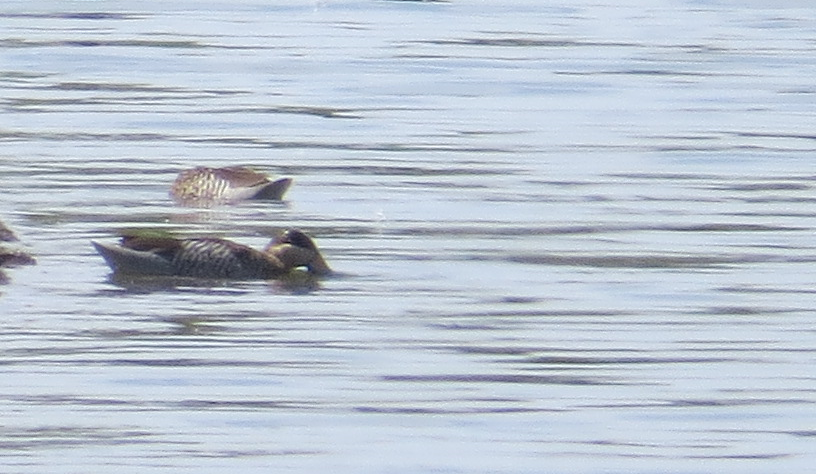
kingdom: Animalia
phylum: Chordata
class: Aves
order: Anseriformes
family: Anatidae
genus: Spatula
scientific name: Spatula versicolor
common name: Silver teal
